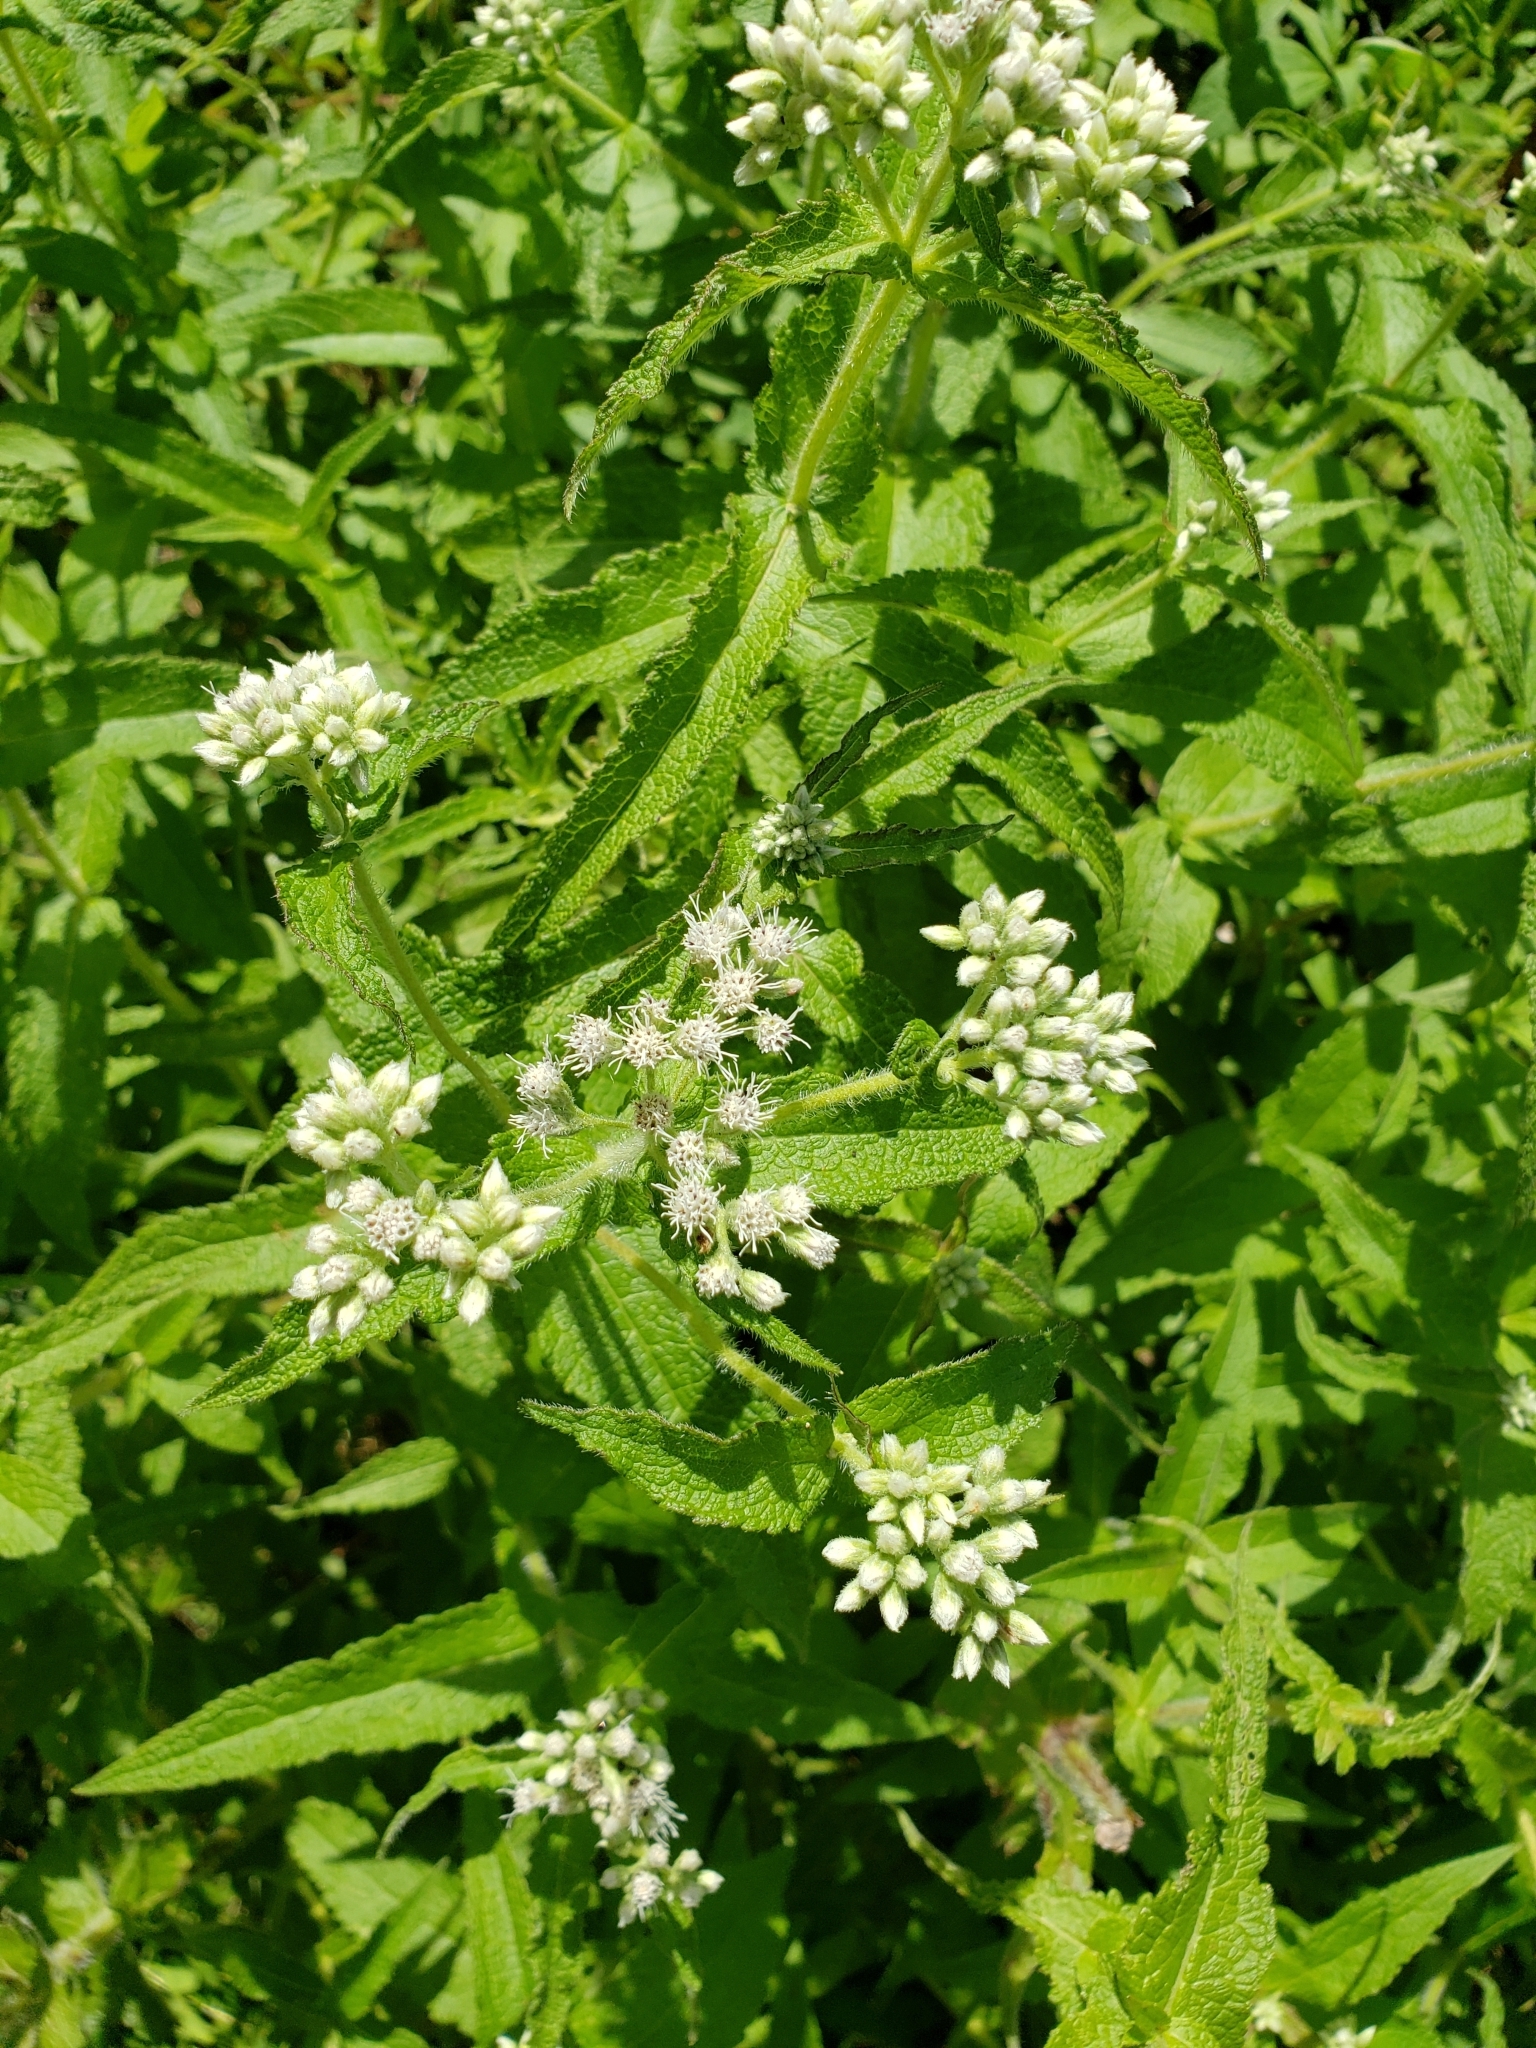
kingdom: Plantae
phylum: Tracheophyta
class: Magnoliopsida
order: Asterales
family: Asteraceae
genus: Eupatorium
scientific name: Eupatorium perfoliatum
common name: Boneset
